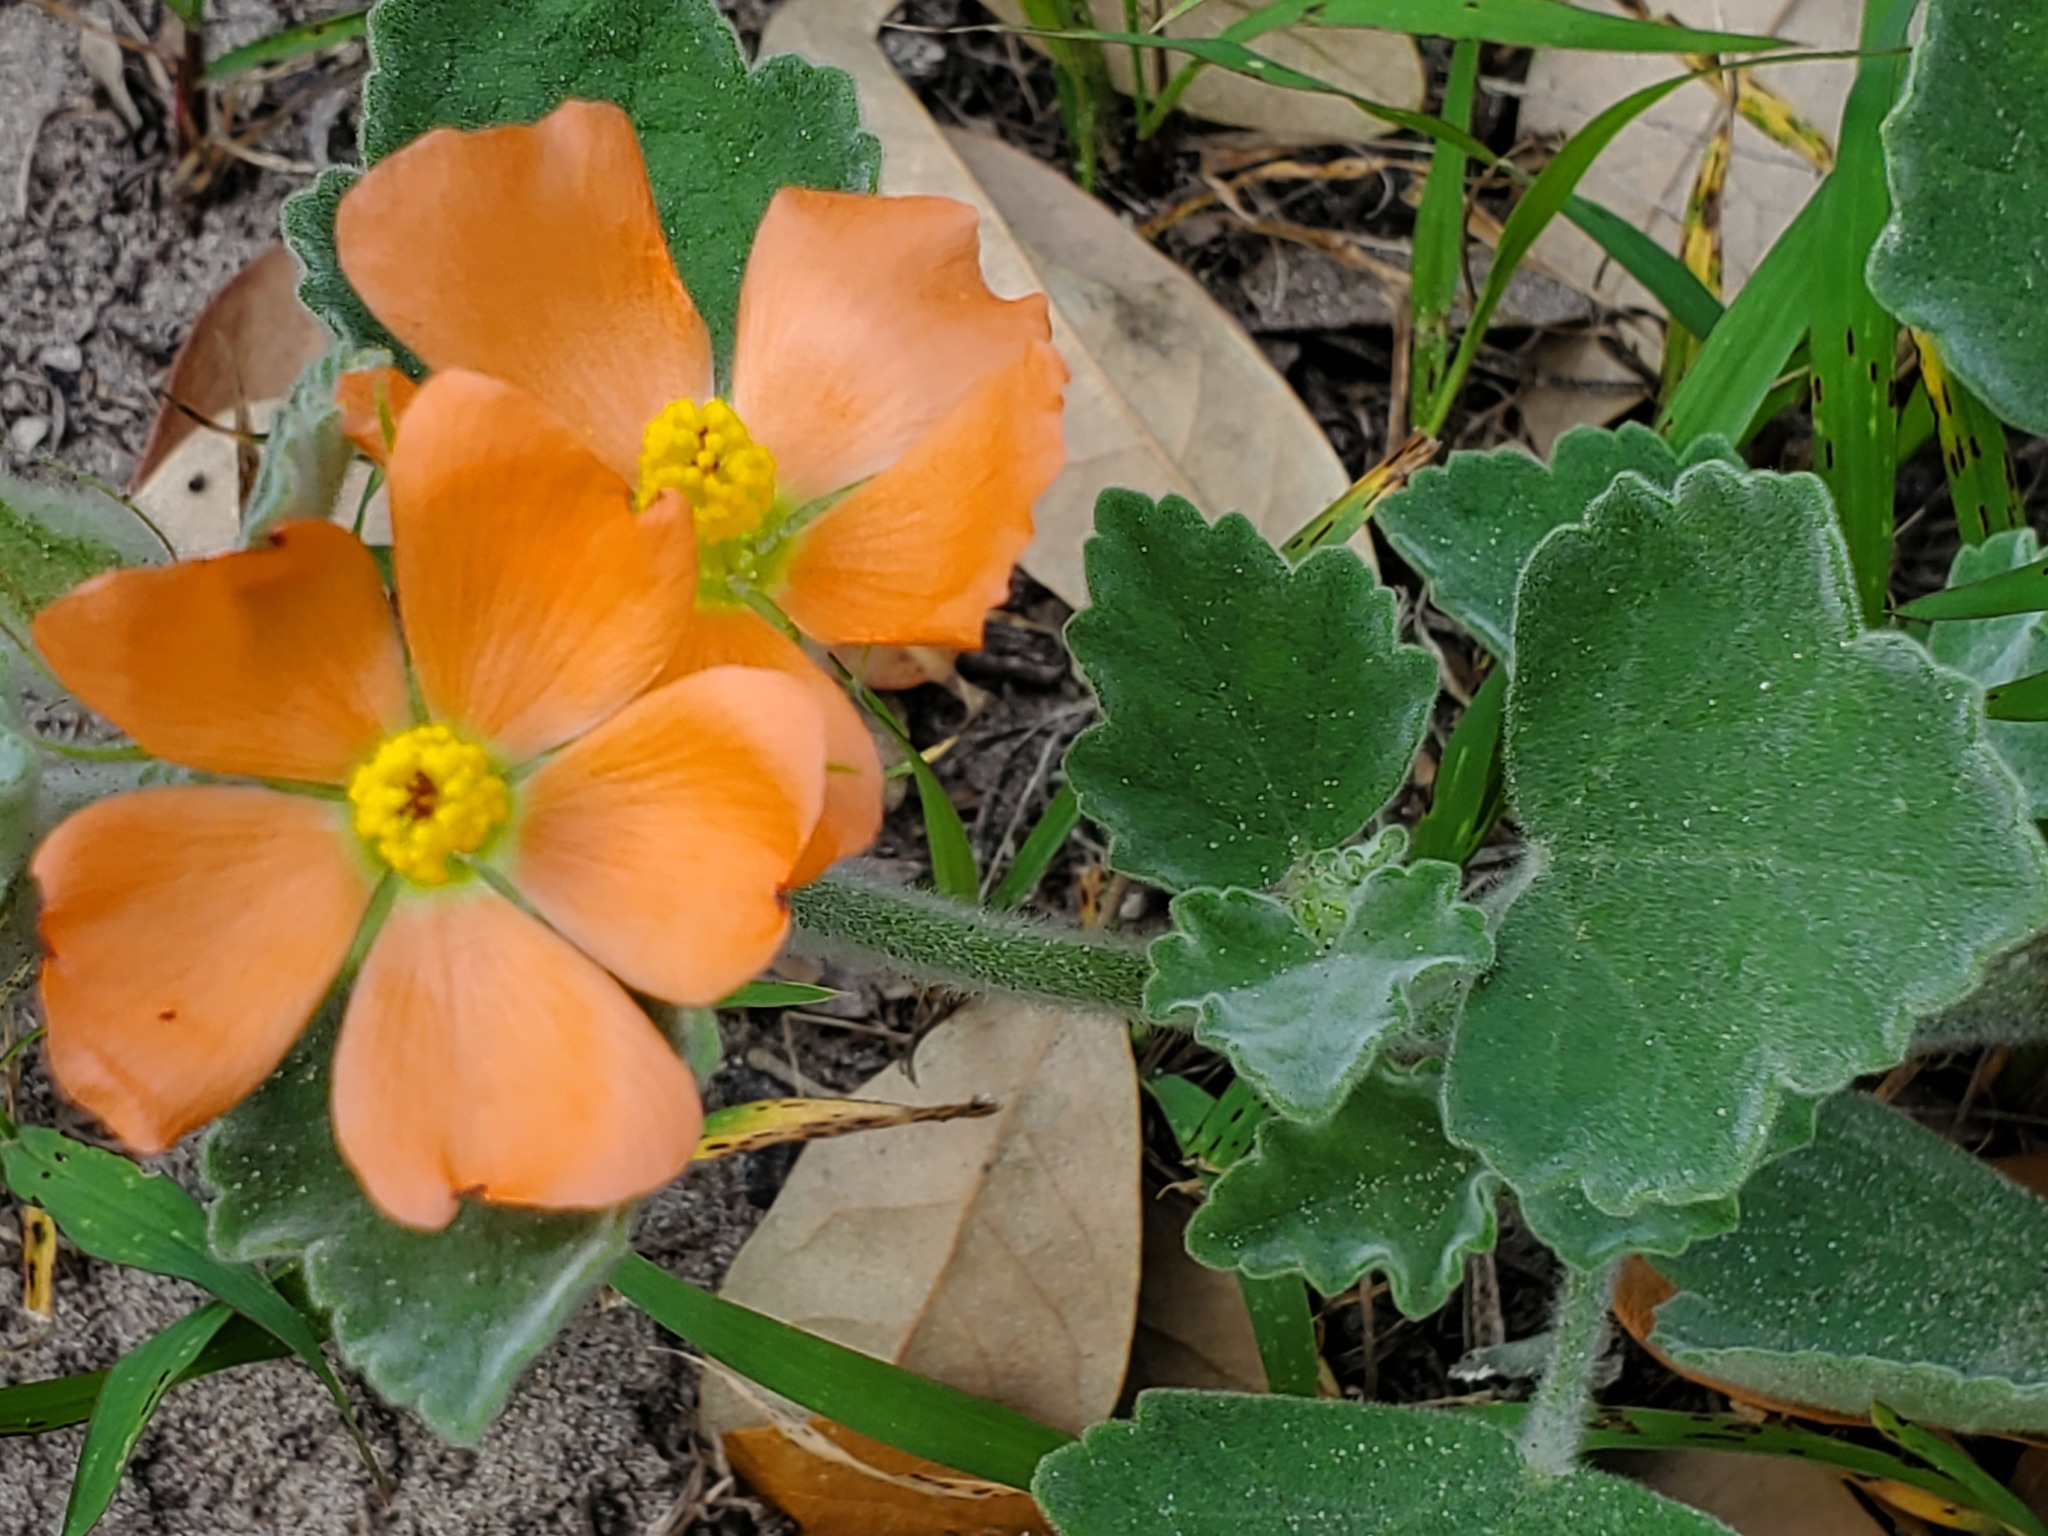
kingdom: Plantae
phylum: Tracheophyta
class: Magnoliopsida
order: Malvales
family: Malvaceae
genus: Sphaeralcea
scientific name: Sphaeralcea lindheimeri
